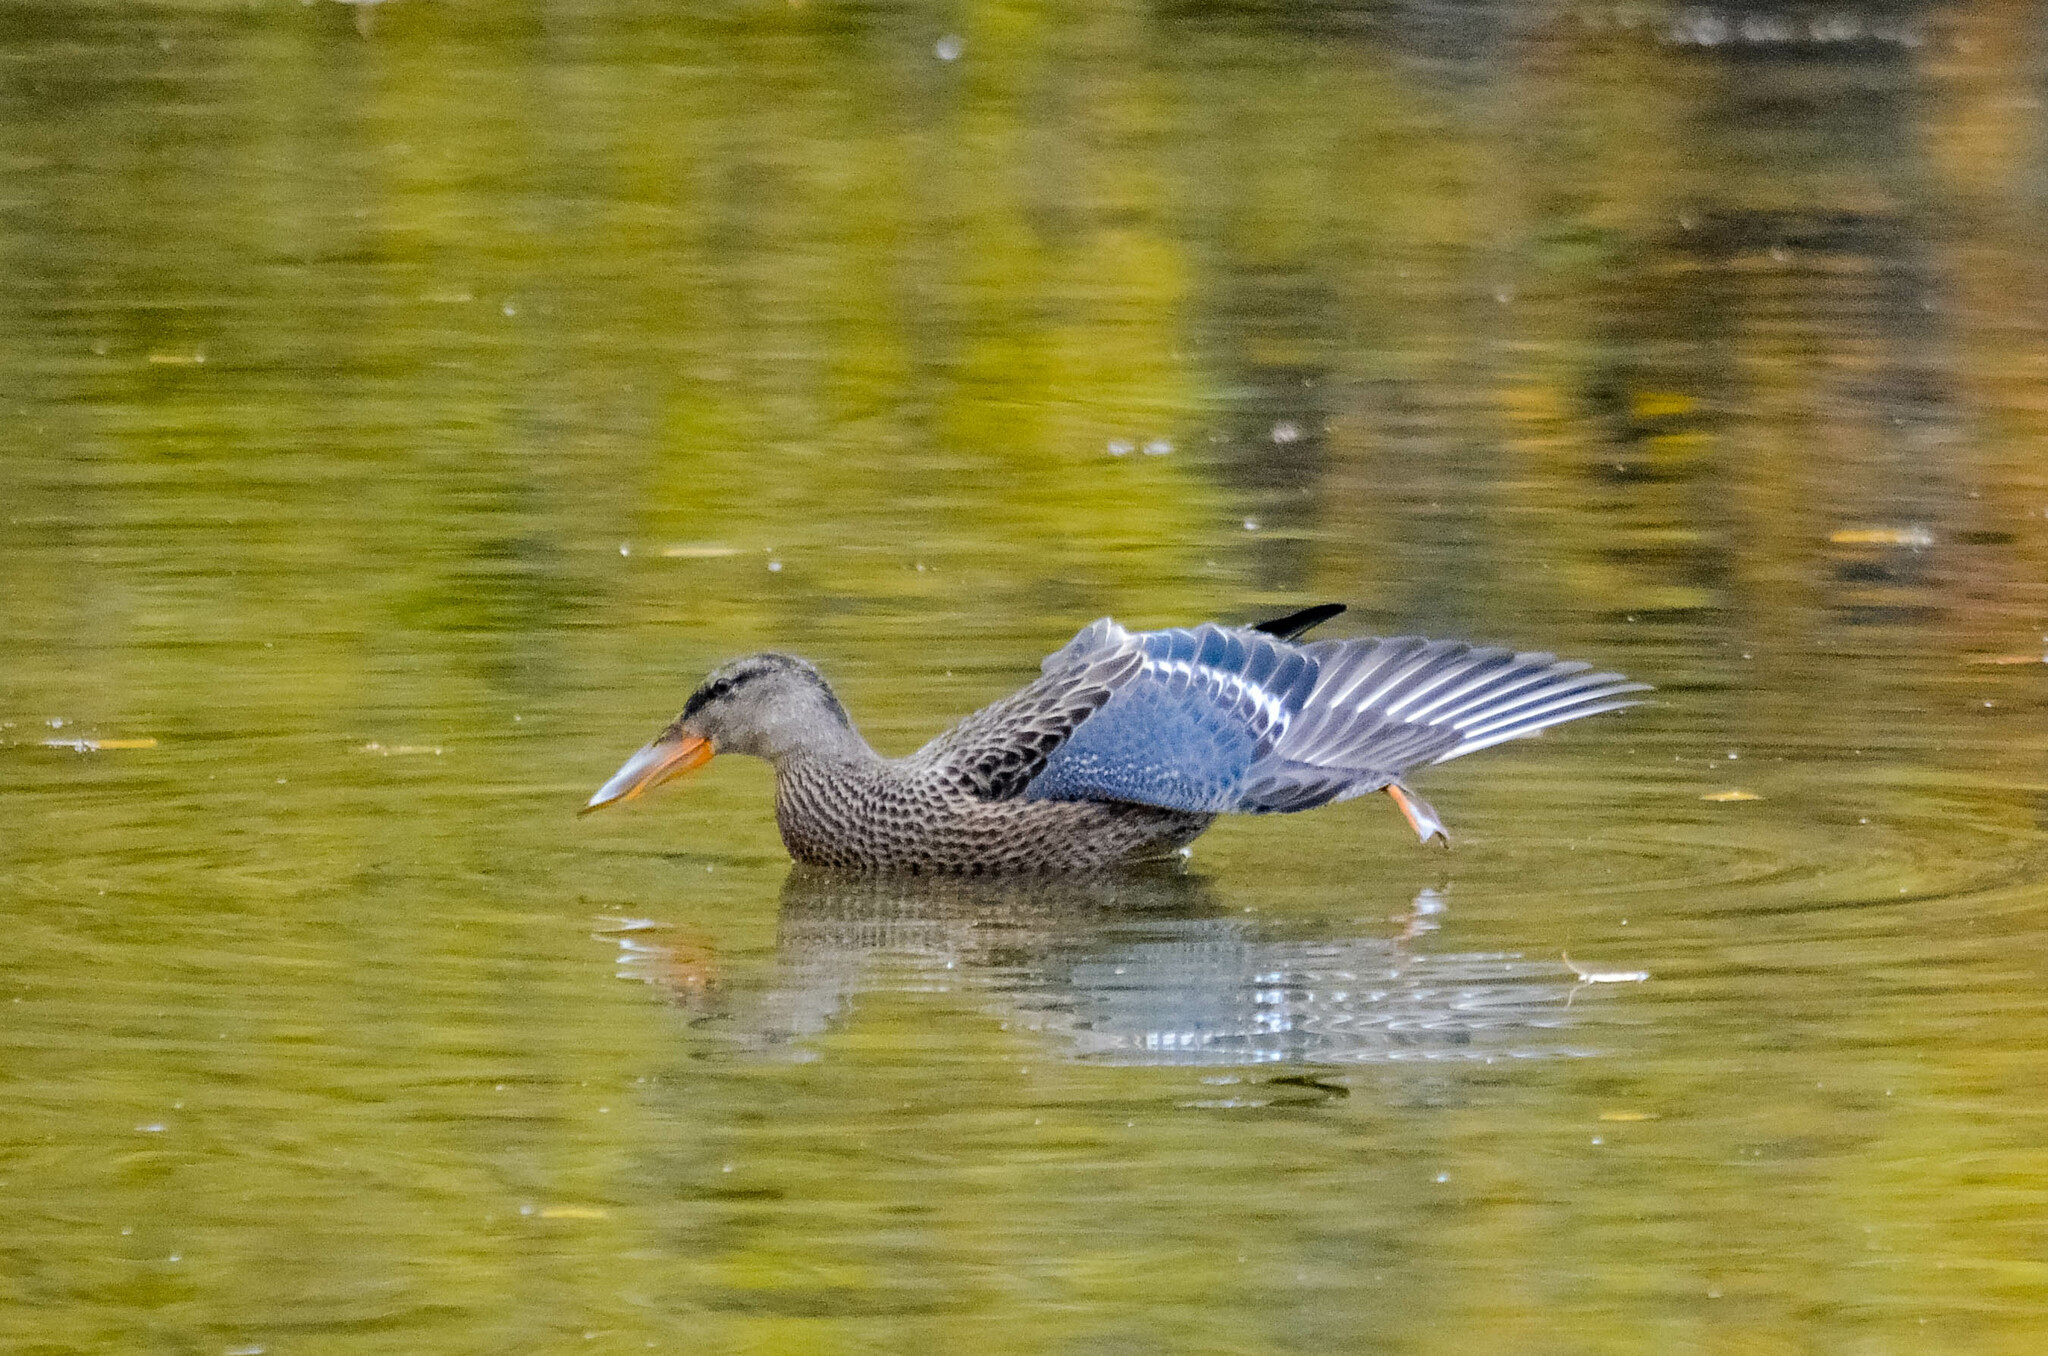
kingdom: Animalia
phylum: Chordata
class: Aves
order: Anseriformes
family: Anatidae
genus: Spatula
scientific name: Spatula clypeata
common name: Northern shoveler
